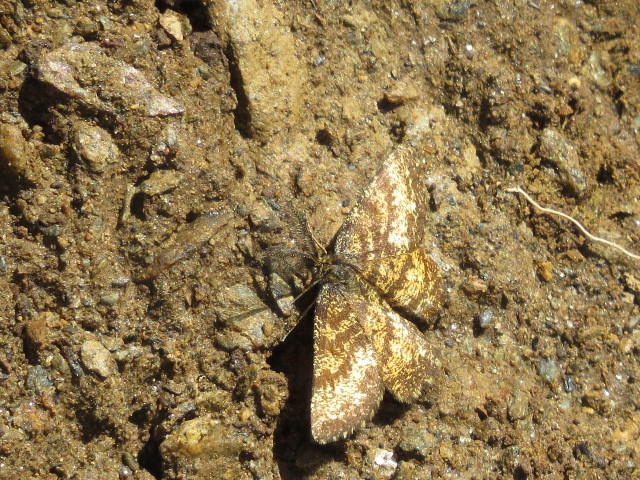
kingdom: Animalia
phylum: Arthropoda
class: Insecta
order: Lepidoptera
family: Geometridae
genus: Ematurga
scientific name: Ematurga atomaria
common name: Common heath
